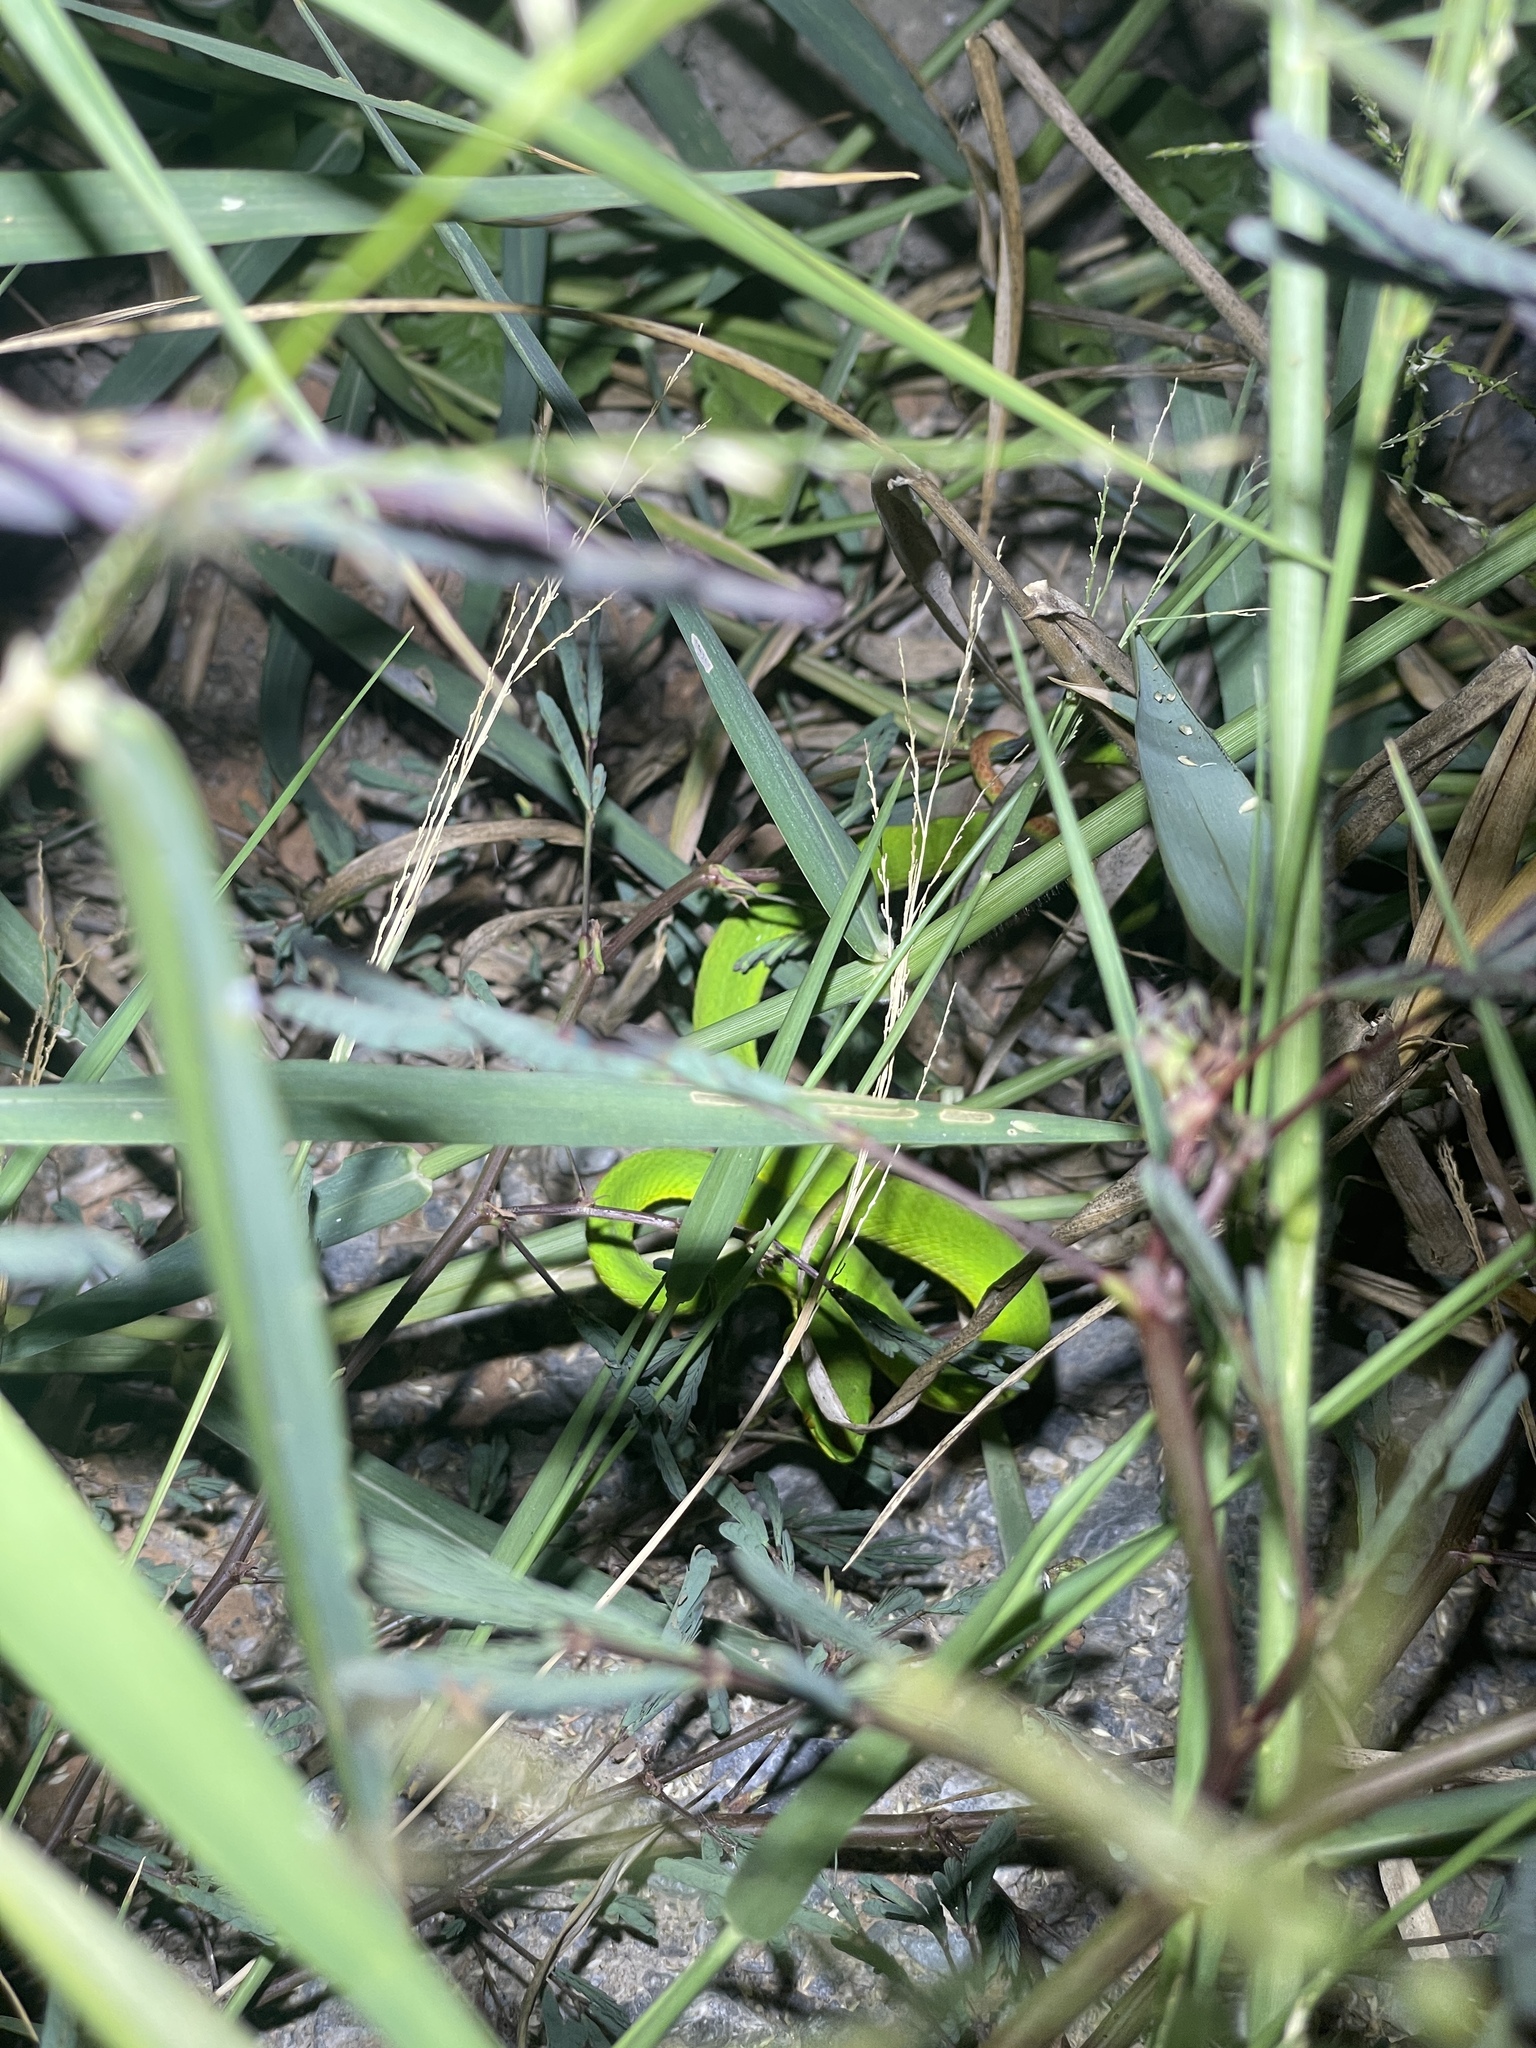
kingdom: Animalia
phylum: Chordata
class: Squamata
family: Viperidae
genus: Trimeresurus
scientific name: Trimeresurus albolabris
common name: White-lipped pitviper
